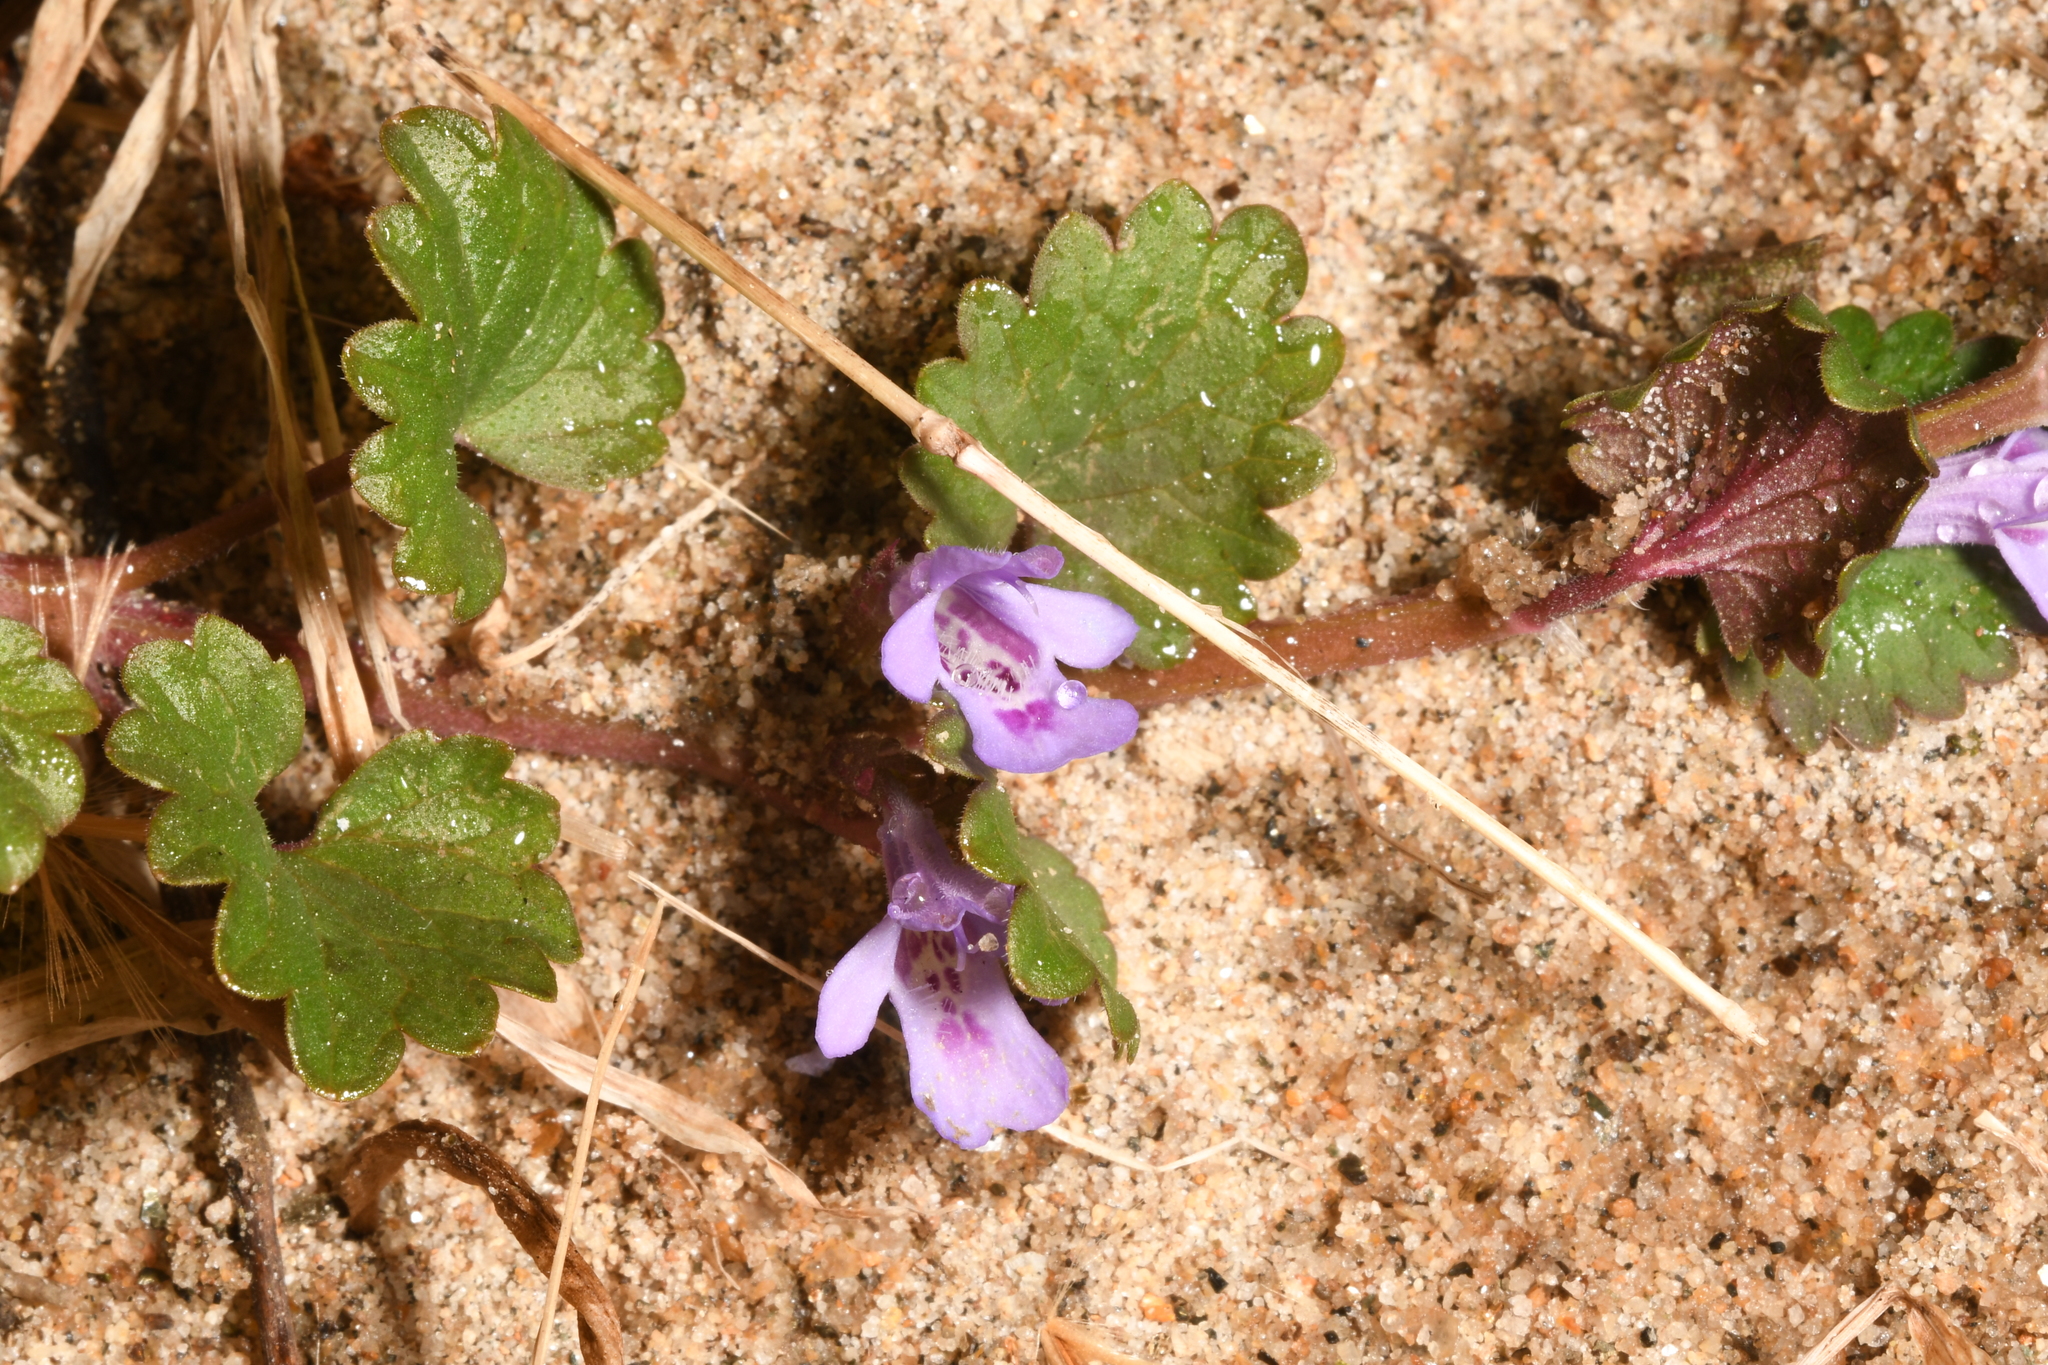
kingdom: Plantae
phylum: Tracheophyta
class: Magnoliopsida
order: Lamiales
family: Lamiaceae
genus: Glechoma
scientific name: Glechoma hederacea
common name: Ground ivy
